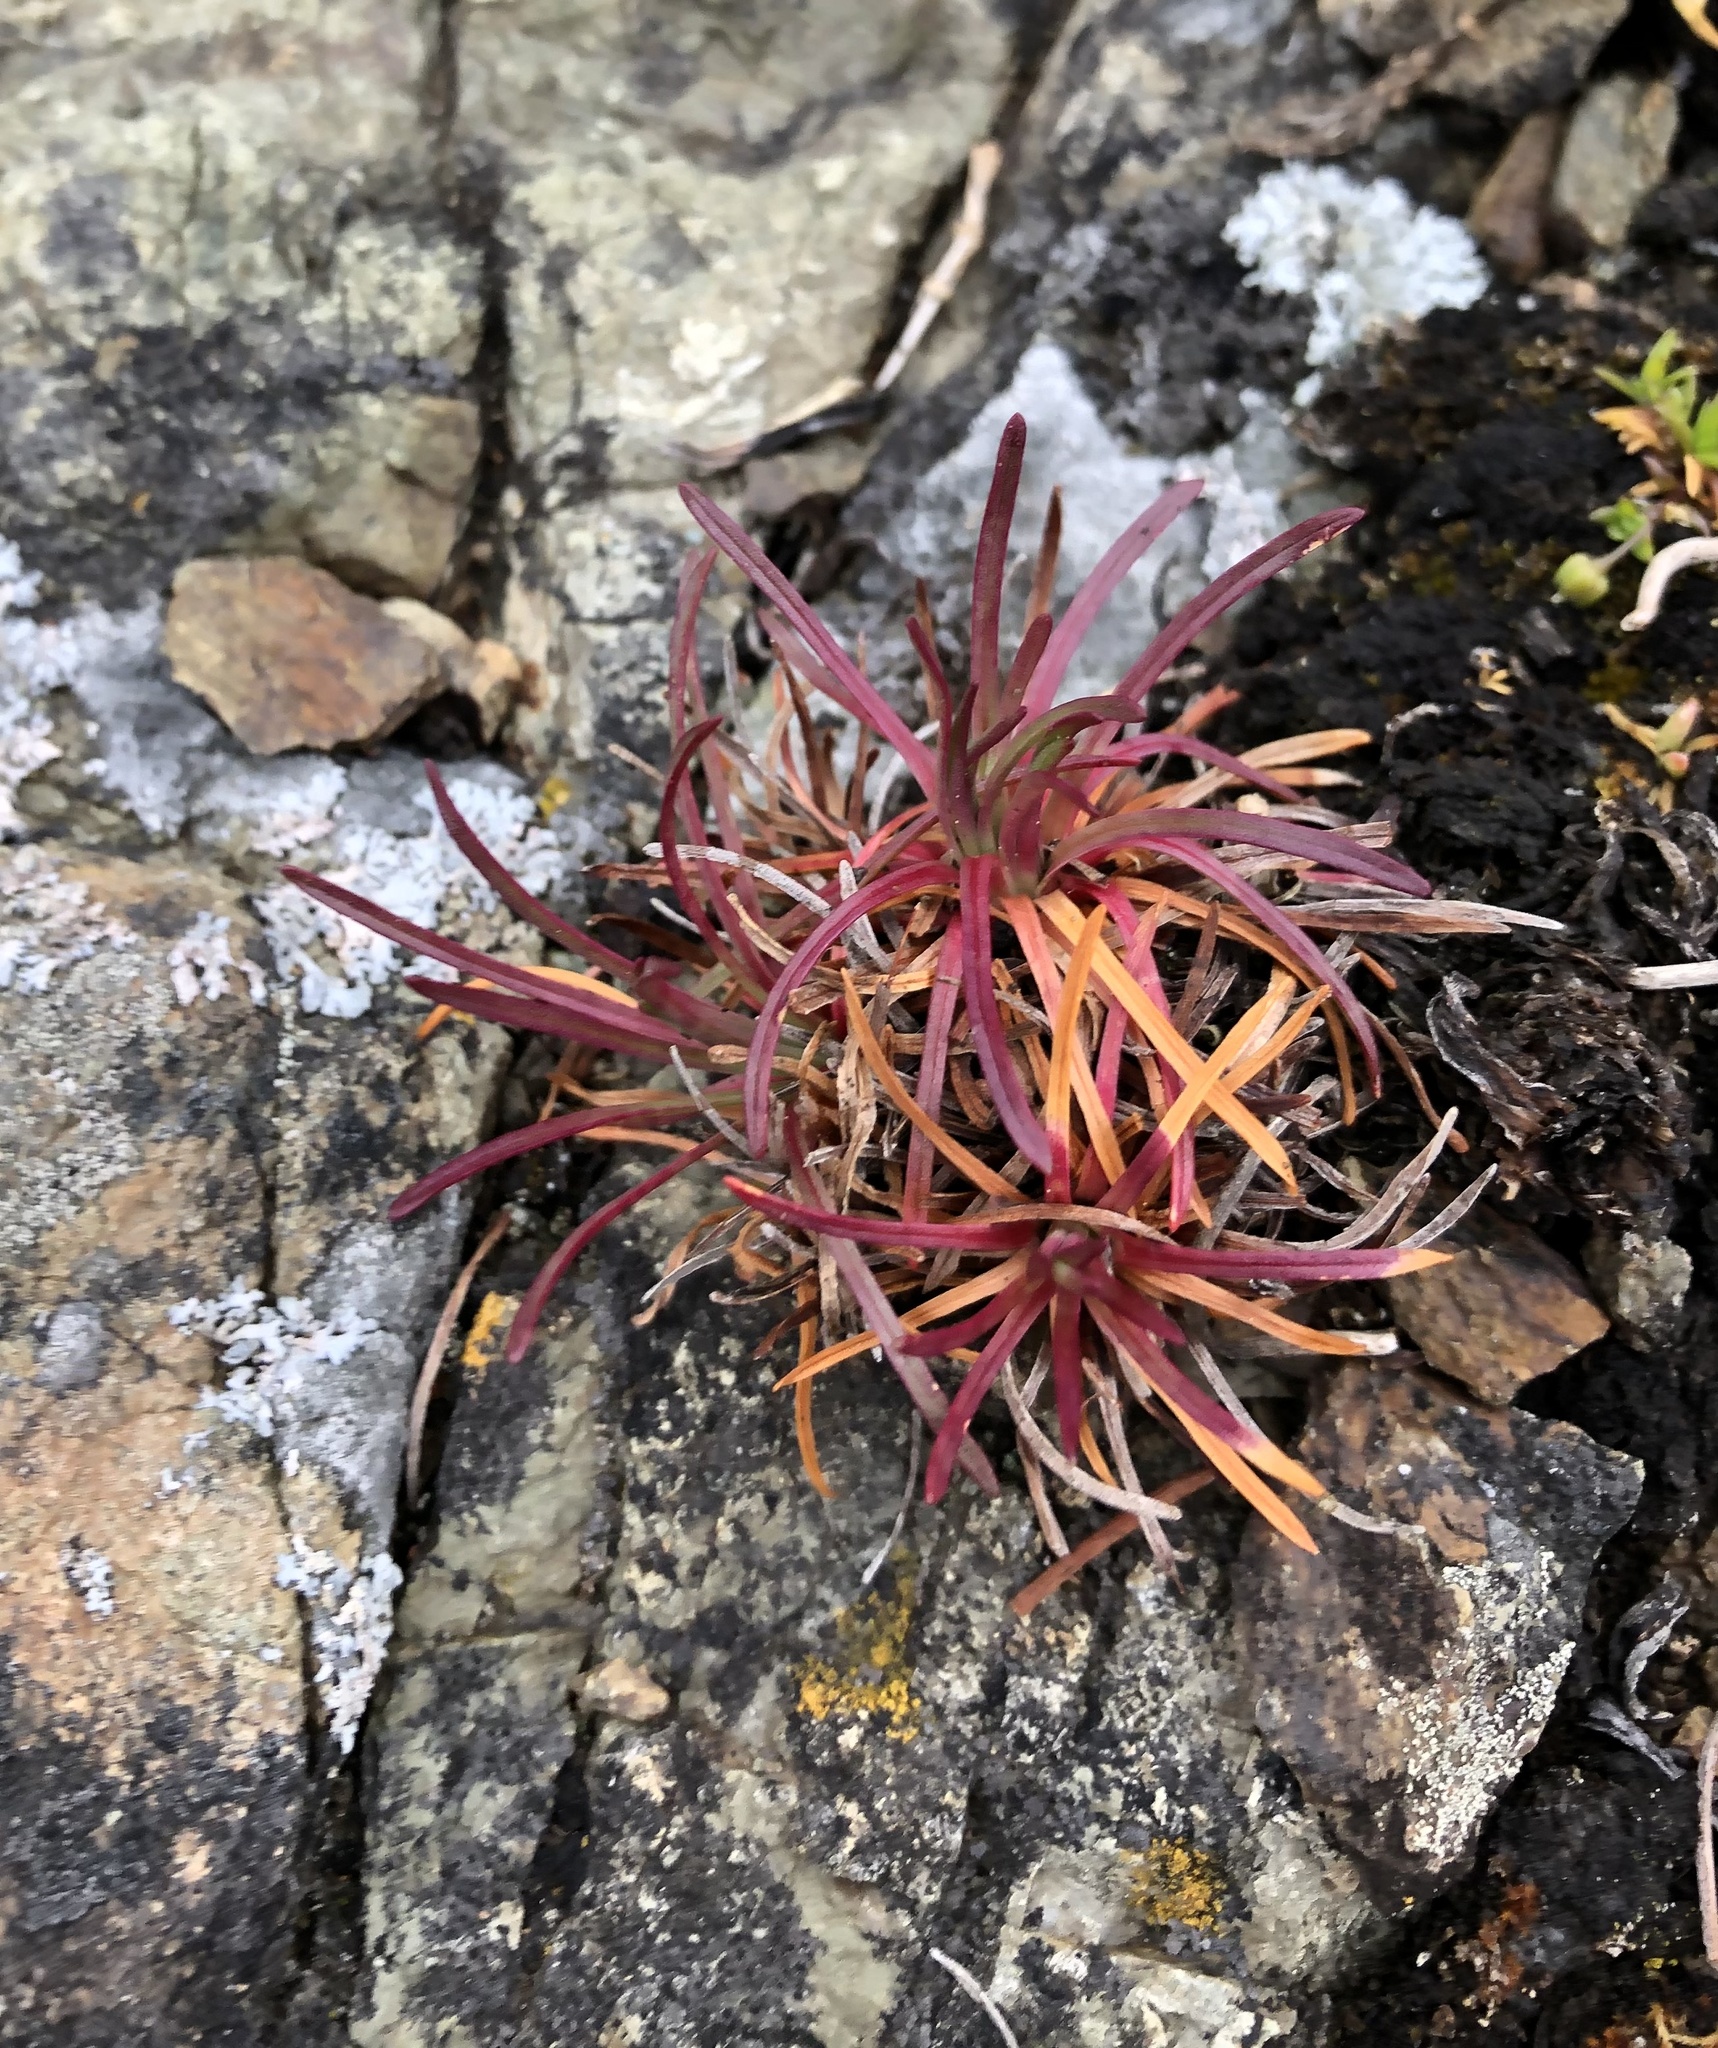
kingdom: Plantae
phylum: Tracheophyta
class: Magnoliopsida
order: Caryophyllales
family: Plumbaginaceae
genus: Armeria
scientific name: Armeria maritima
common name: Thrift
